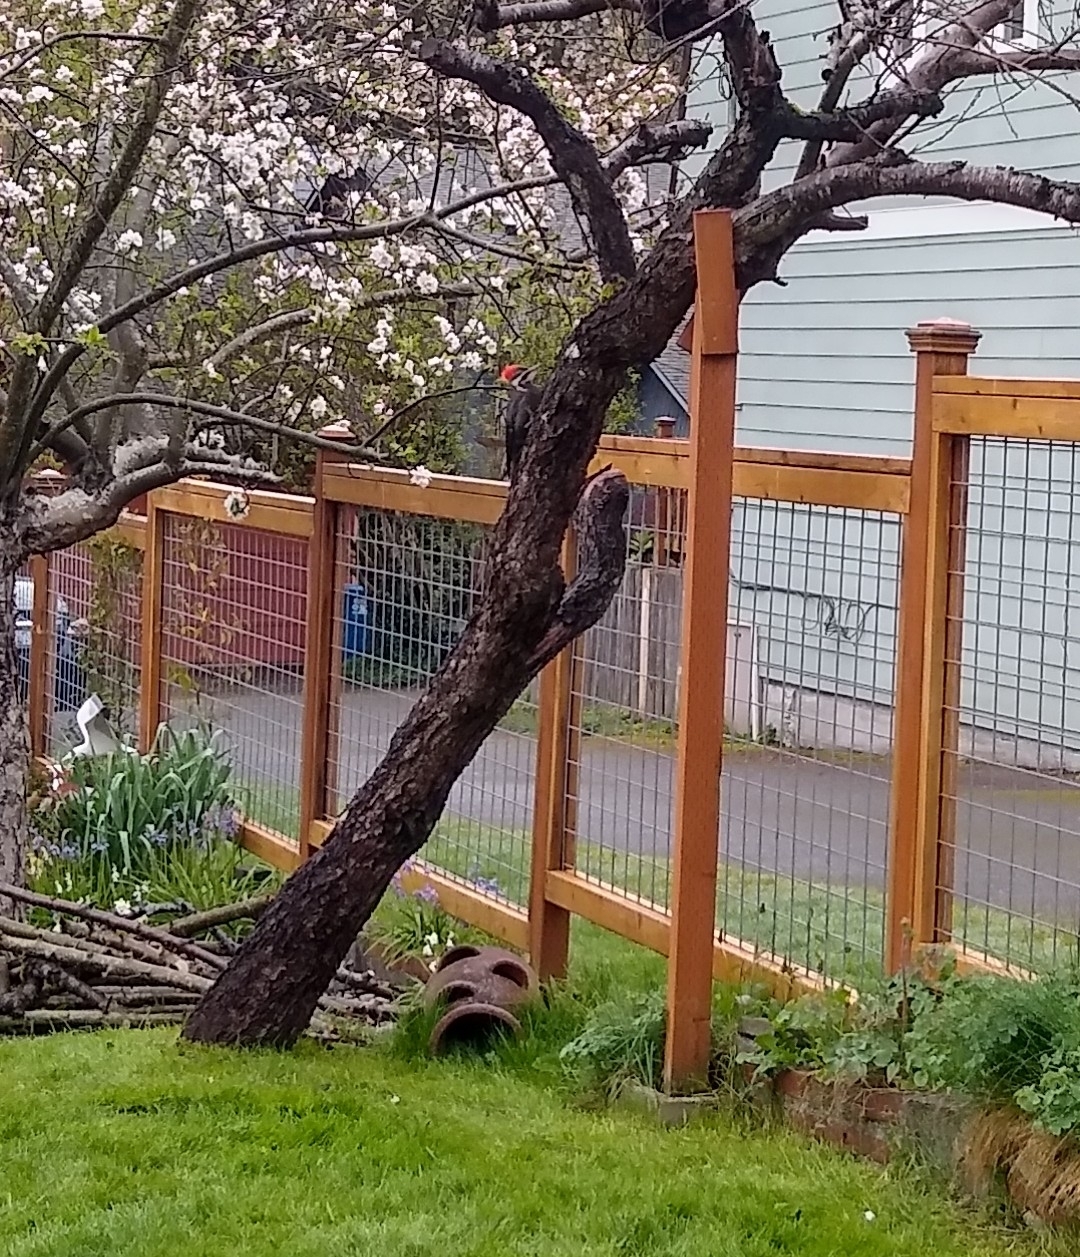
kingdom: Animalia
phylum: Chordata
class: Aves
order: Piciformes
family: Picidae
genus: Dryocopus
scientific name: Dryocopus pileatus
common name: Pileated woodpecker
